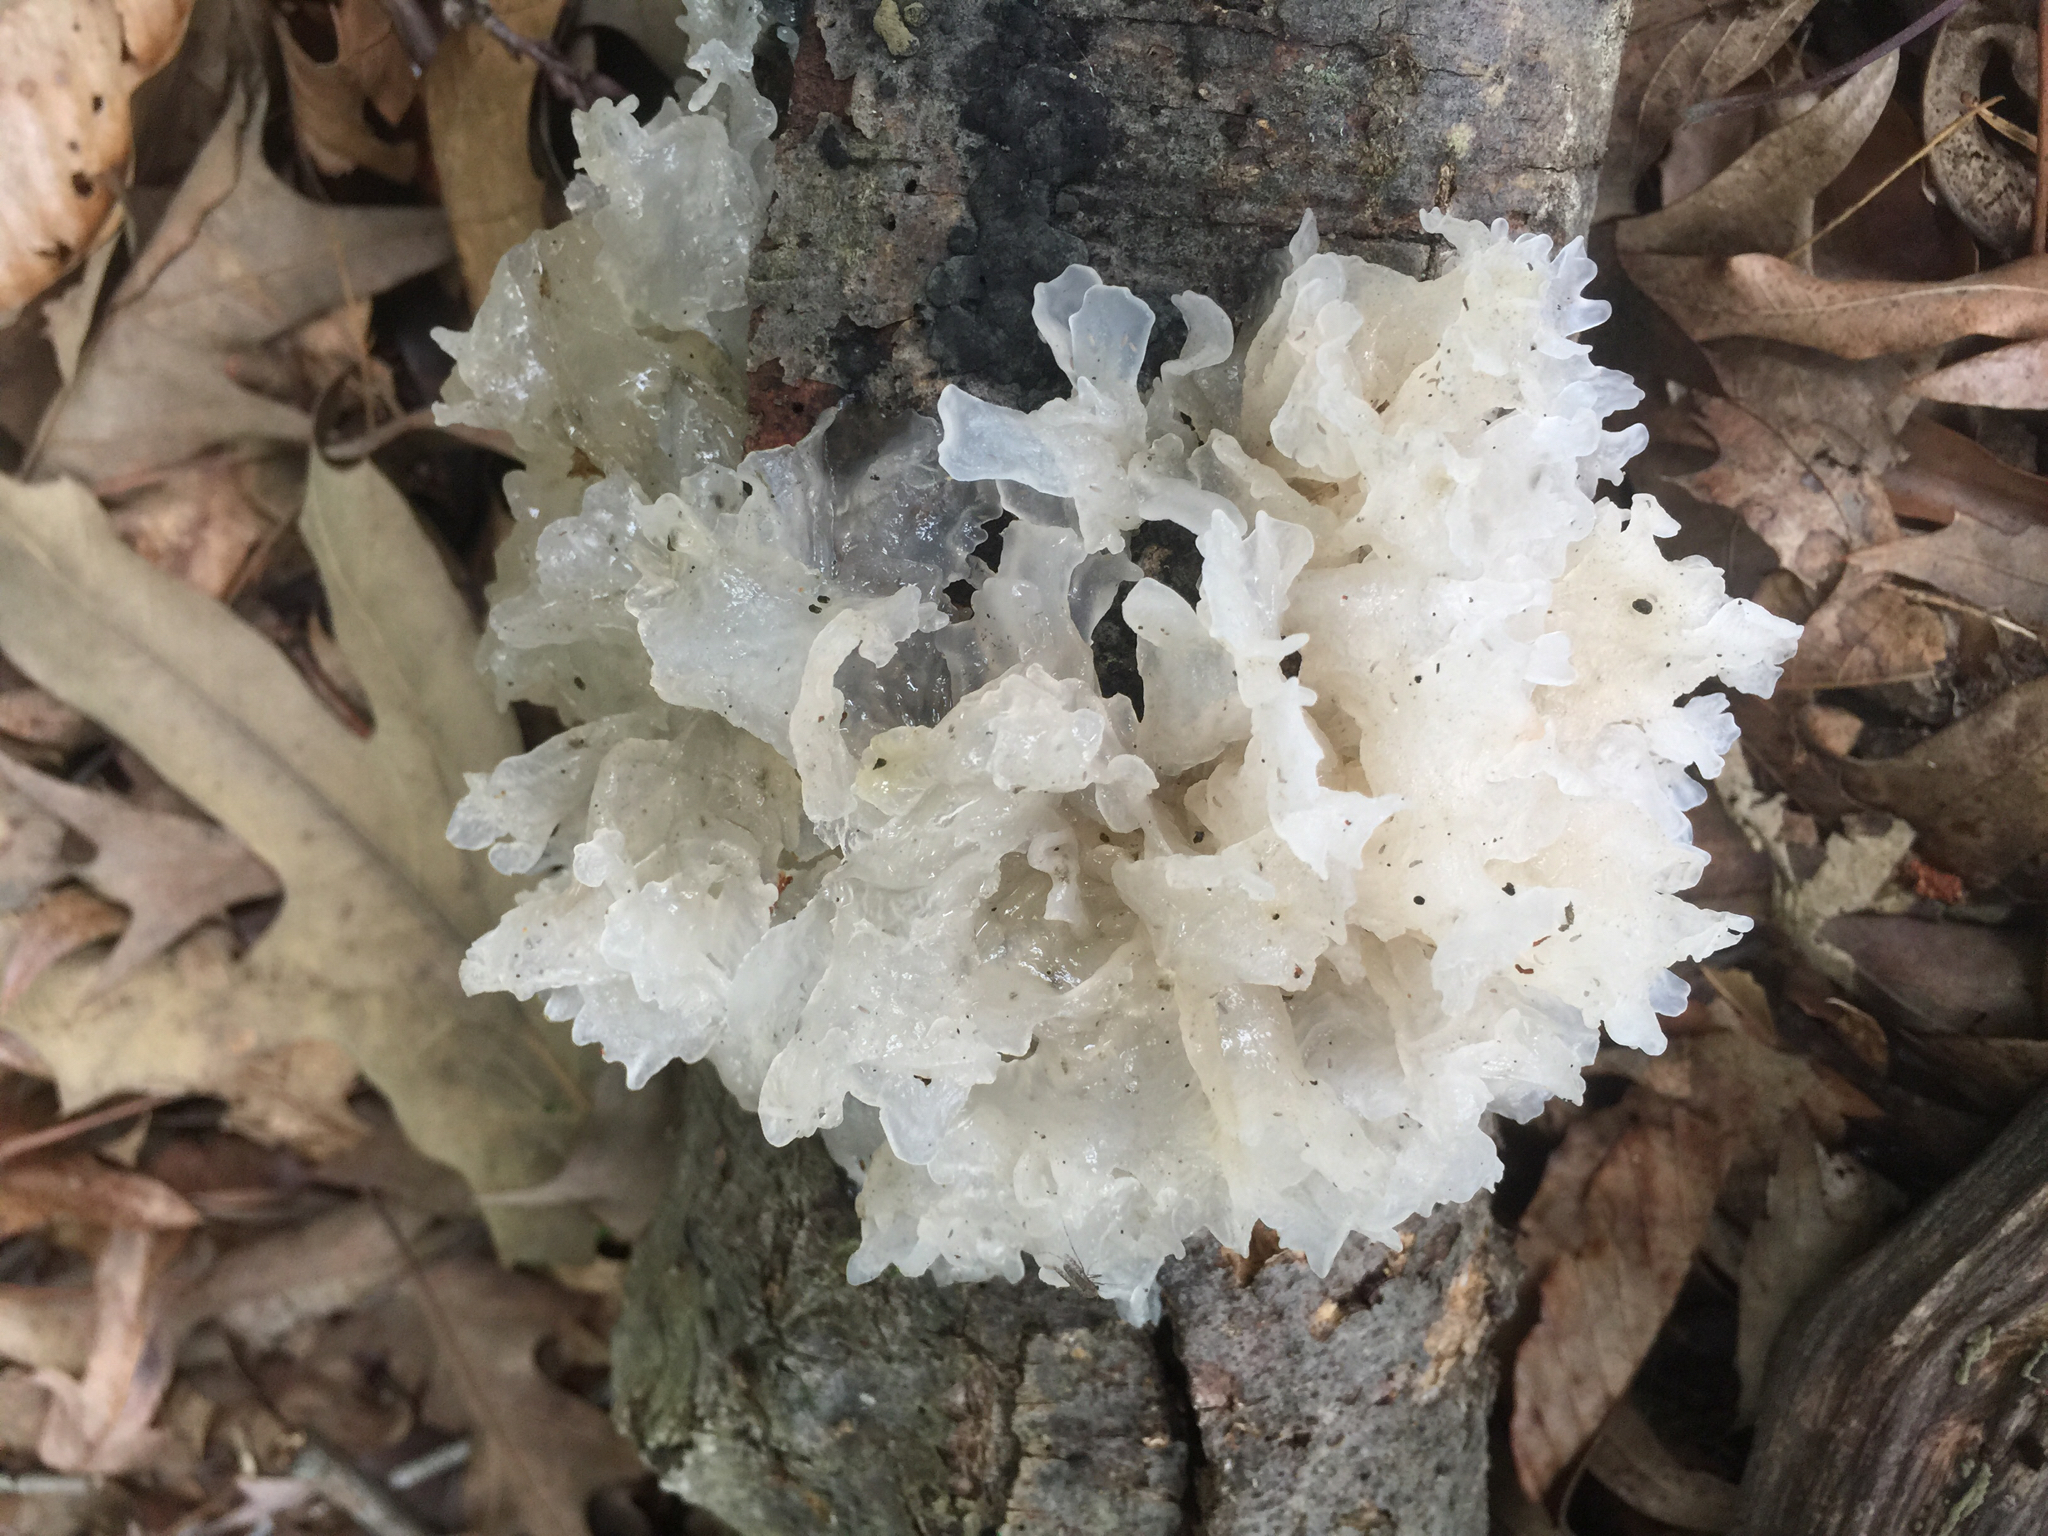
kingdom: Fungi
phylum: Basidiomycota
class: Tremellomycetes
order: Tremellales
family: Tremellaceae
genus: Tremella
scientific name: Tremella fuciformis
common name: Snow fungus
